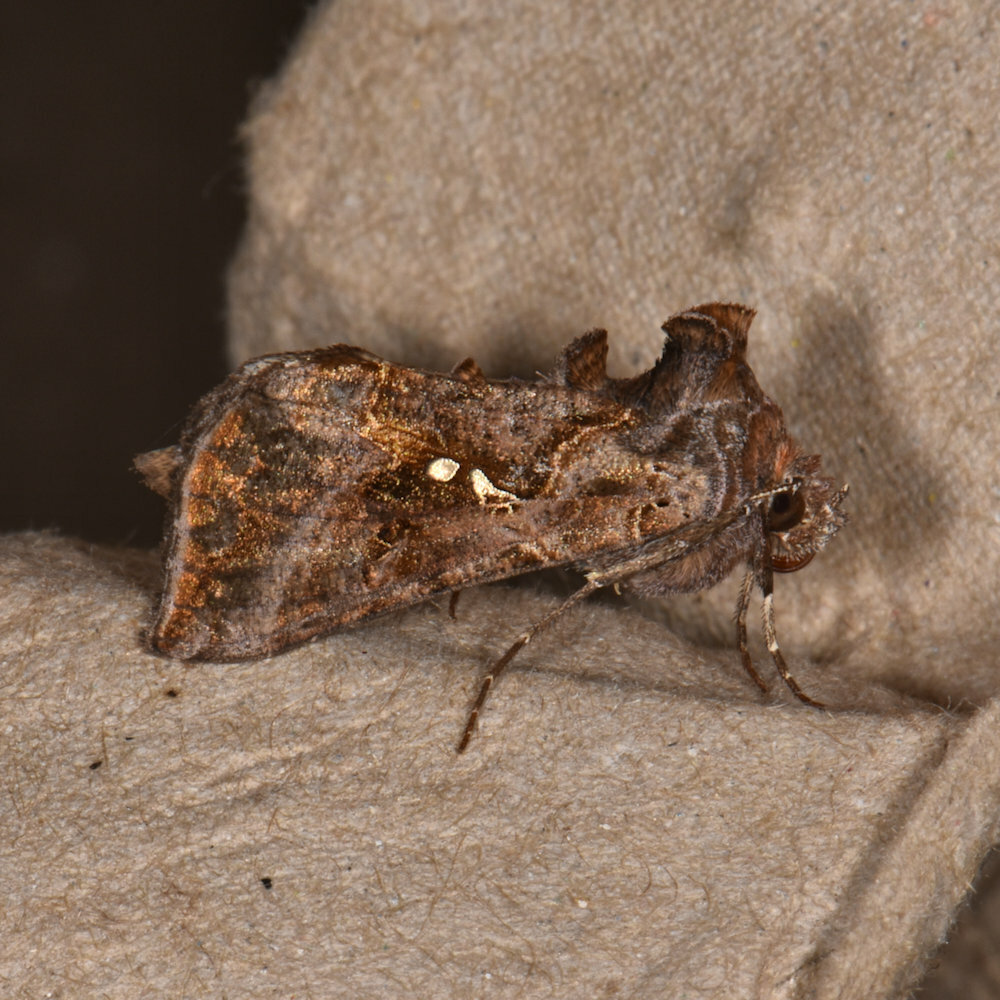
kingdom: Animalia
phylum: Arthropoda
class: Insecta
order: Lepidoptera
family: Noctuidae
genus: Autographa
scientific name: Autographa precationis
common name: Common looper moth
